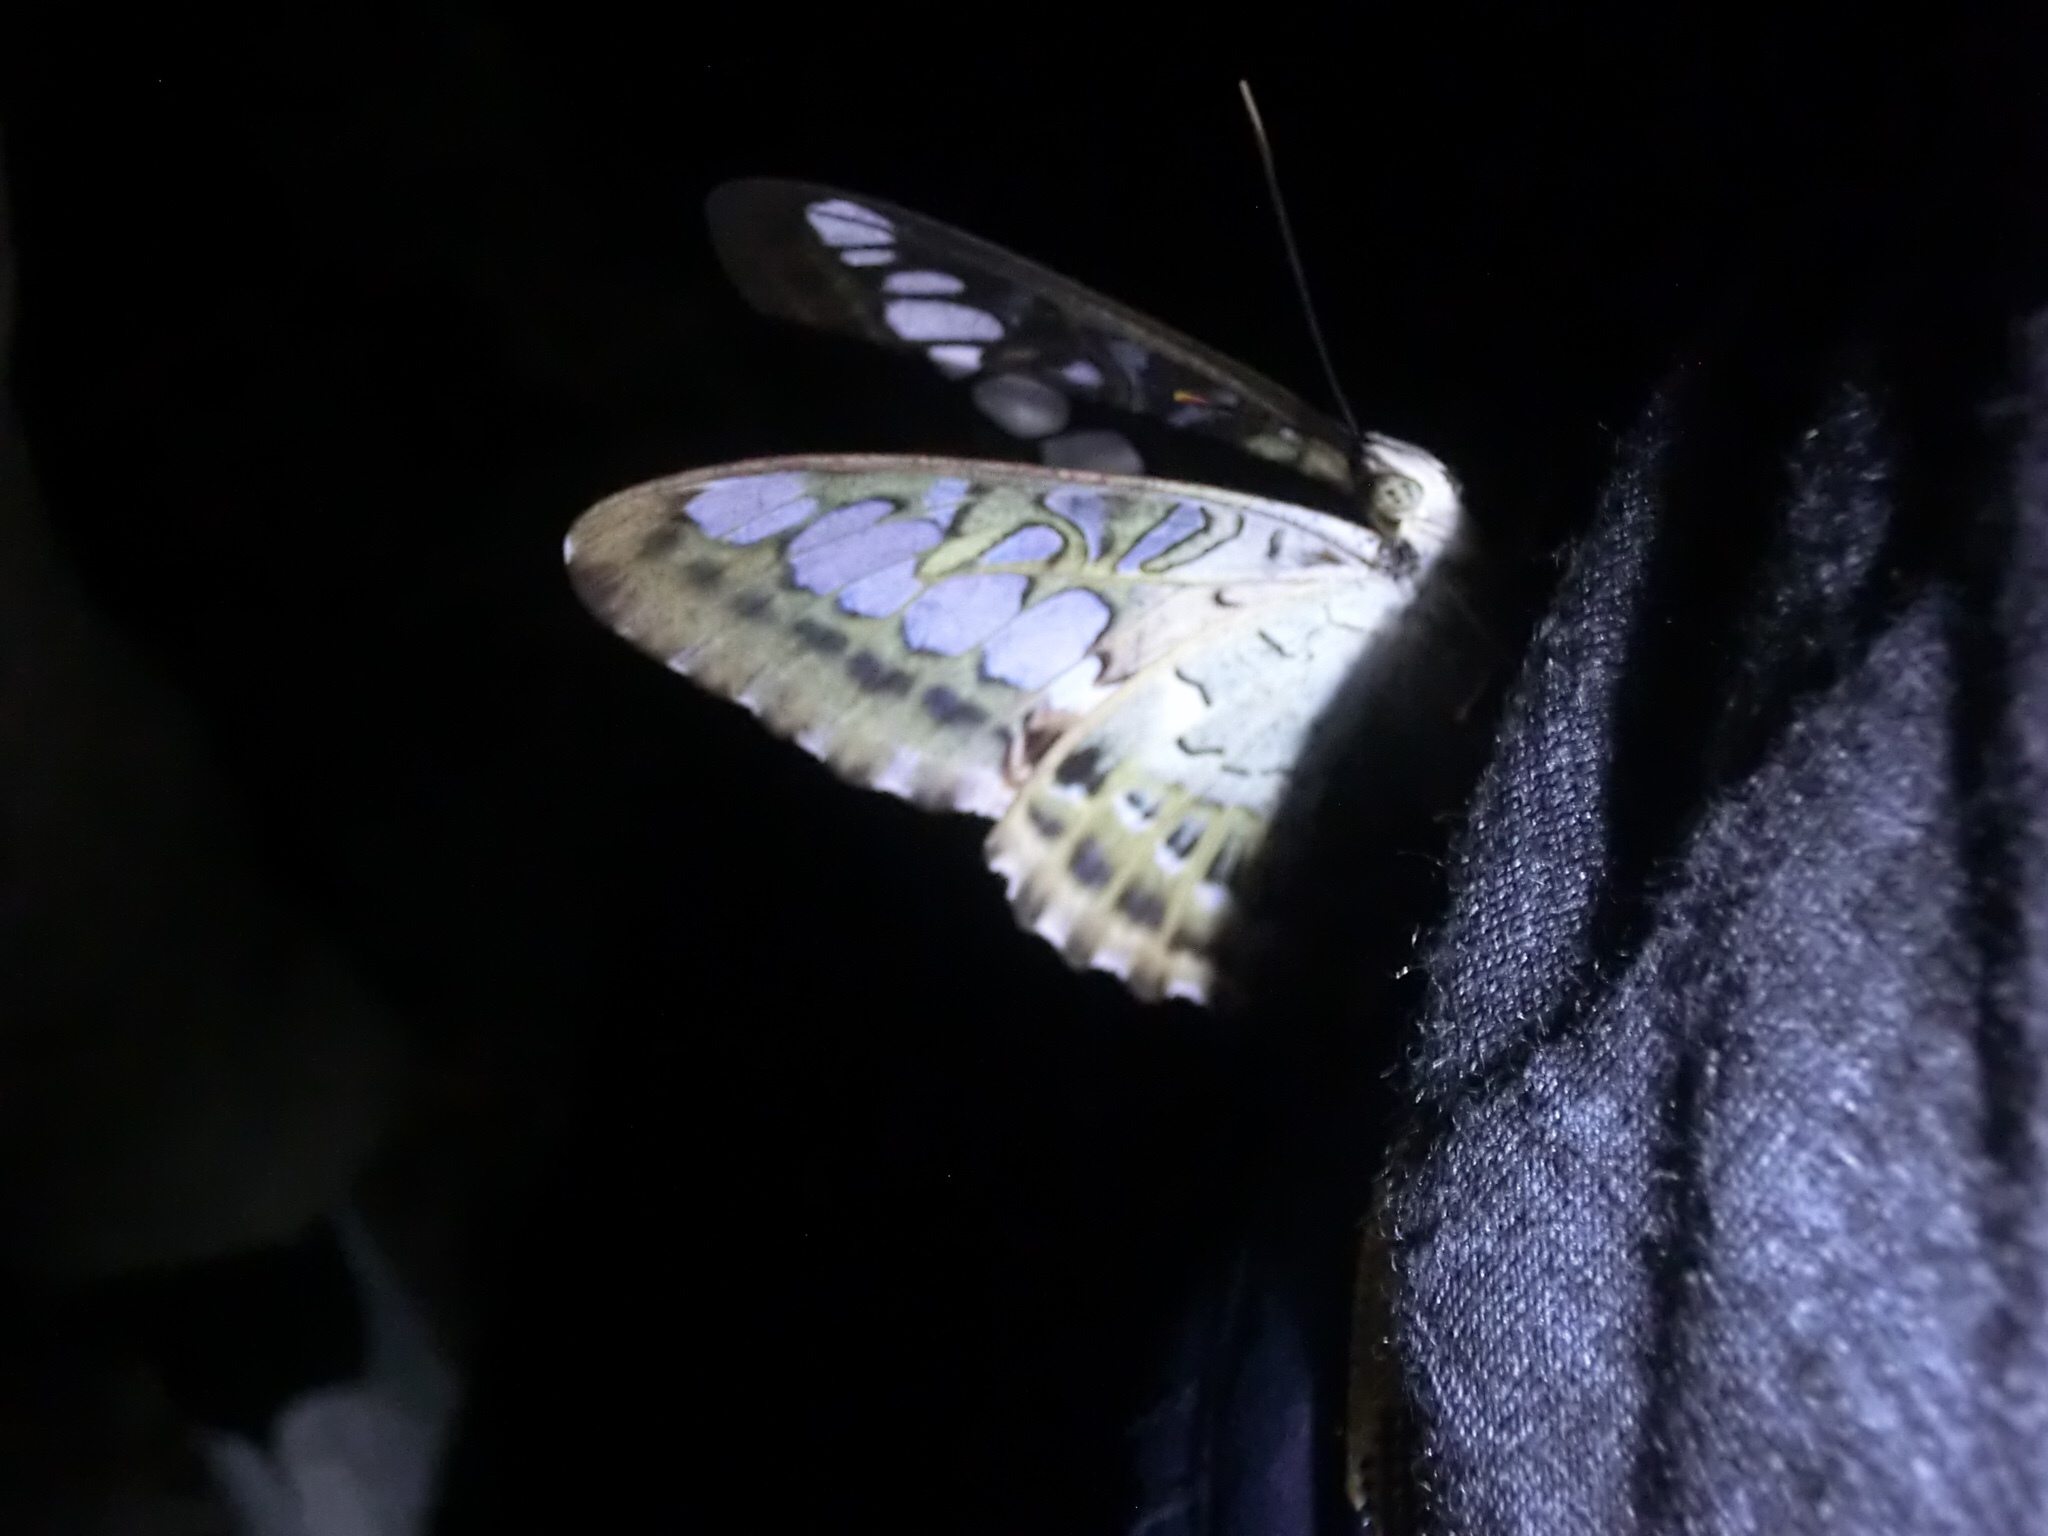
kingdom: Animalia
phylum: Arthropoda
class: Insecta
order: Lepidoptera
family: Nymphalidae
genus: Kallima
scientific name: Kallima sylvia
